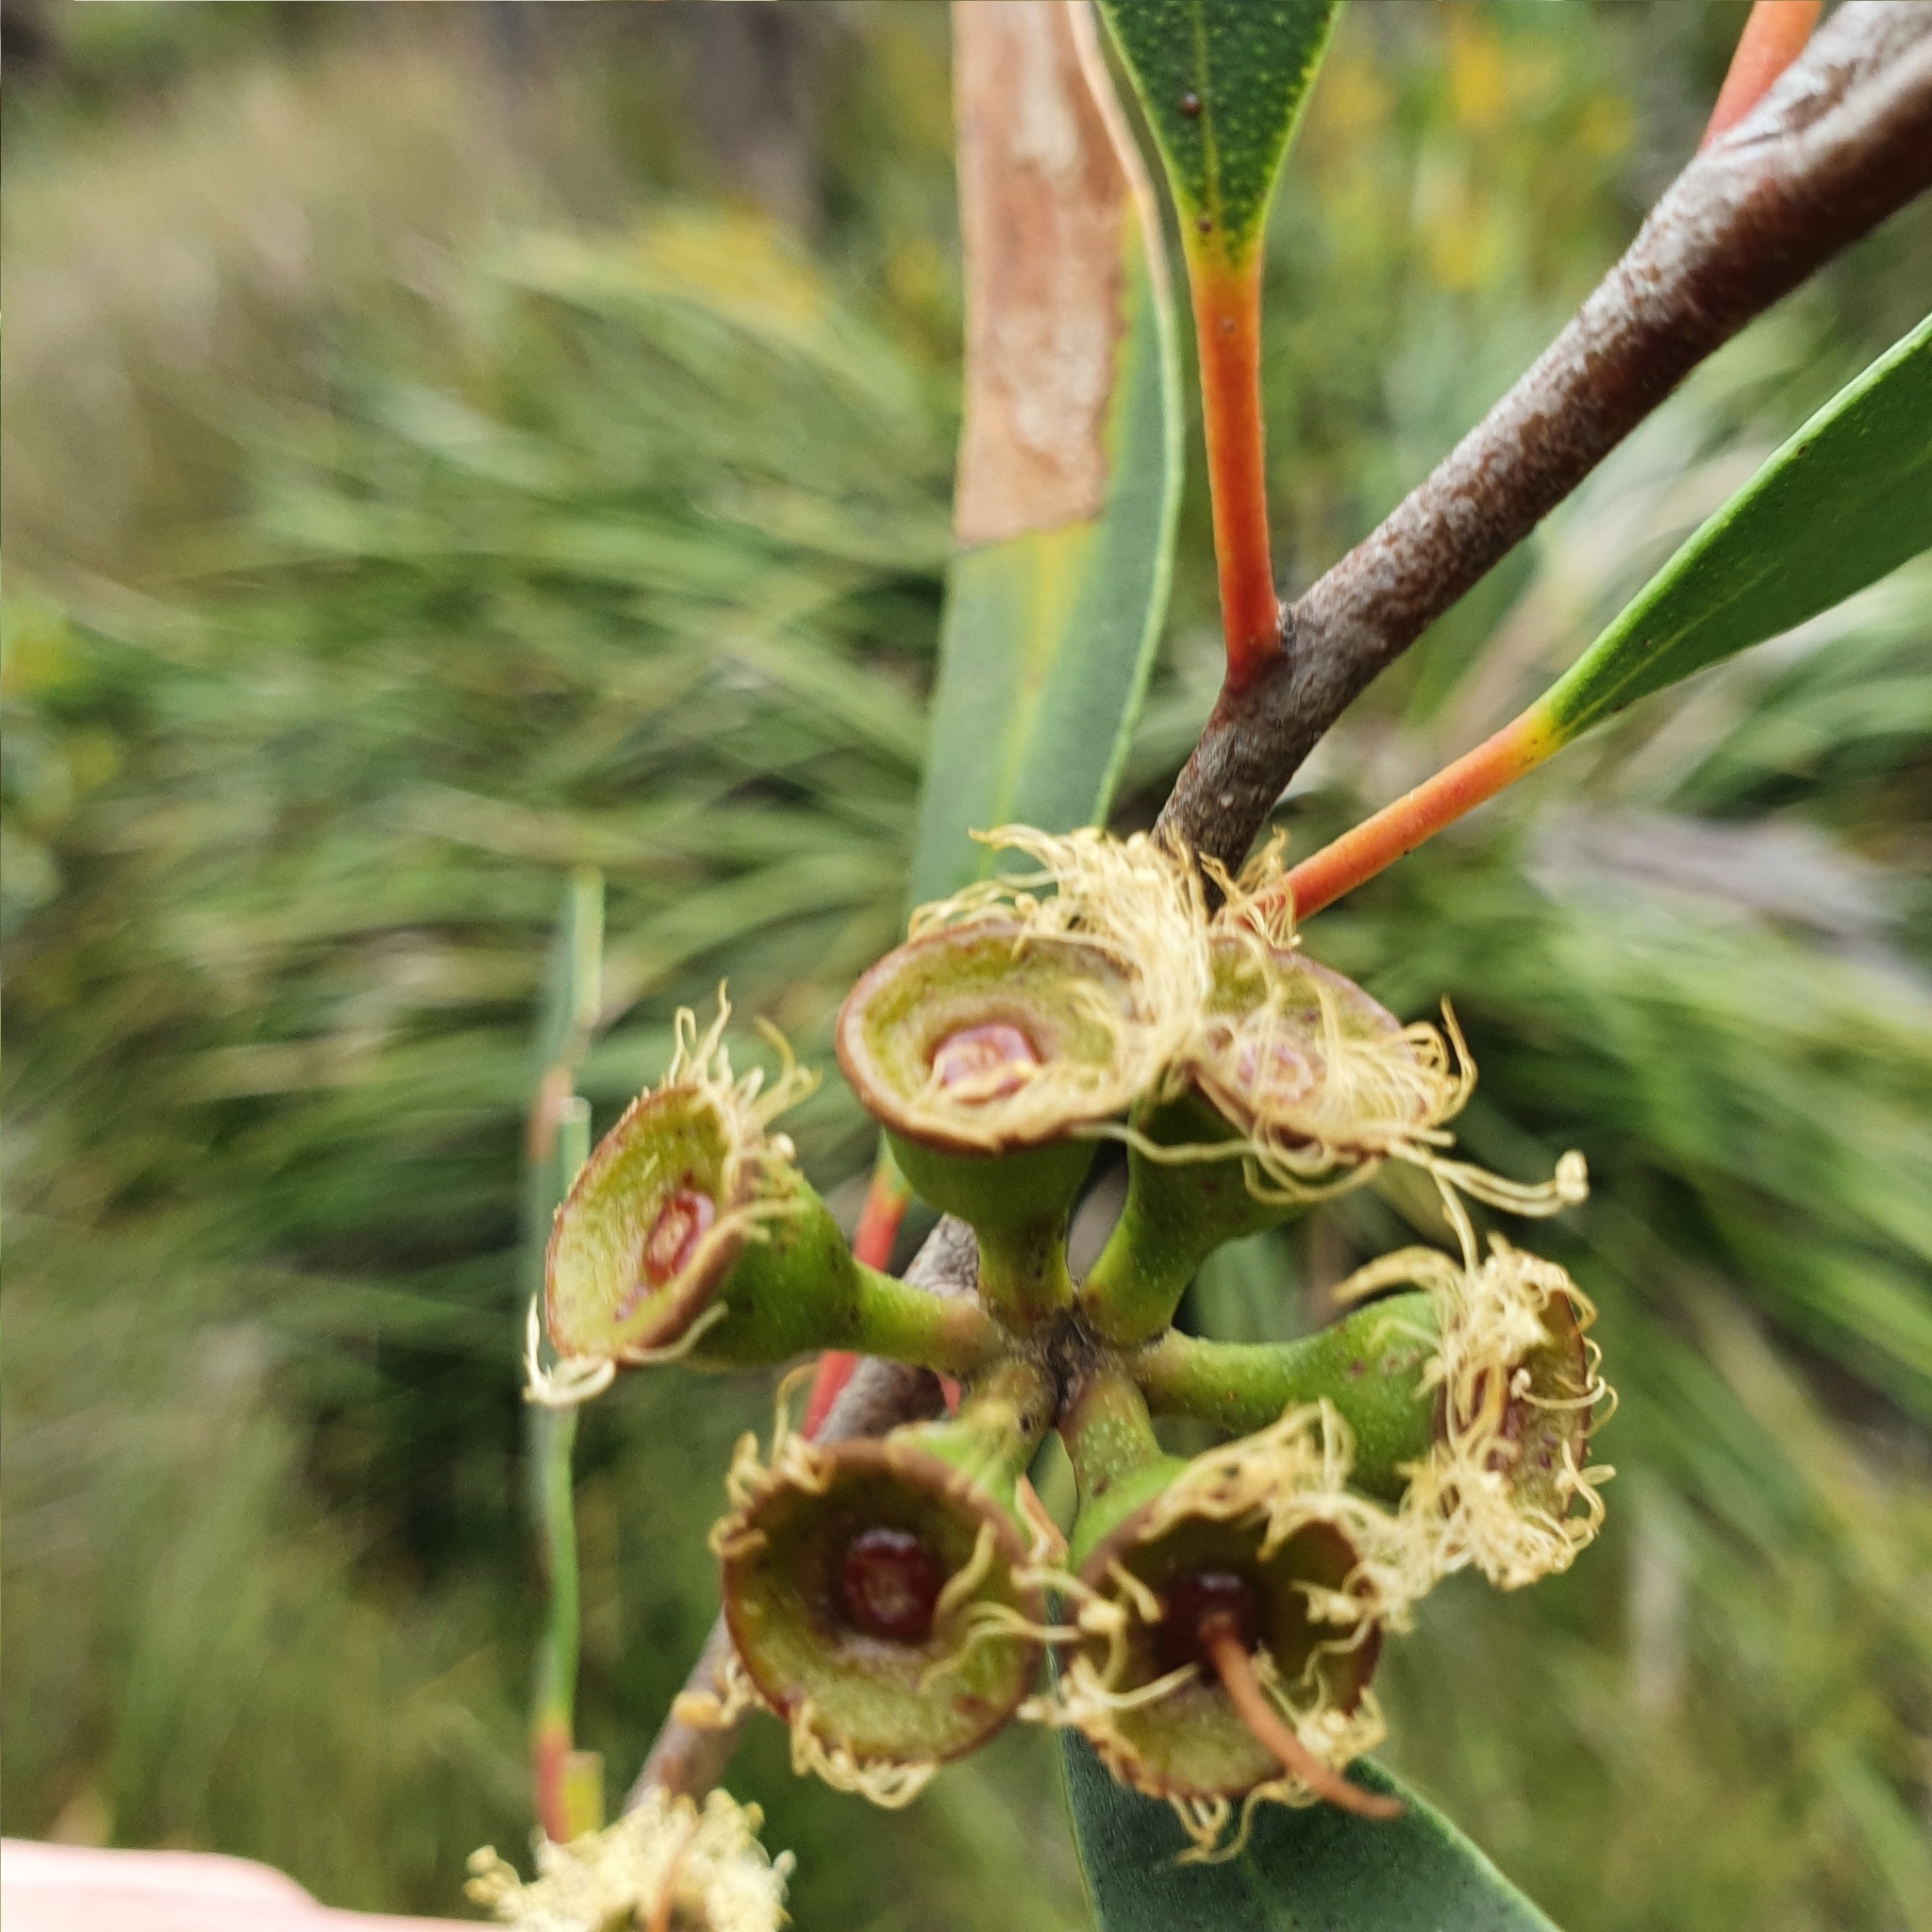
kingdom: Plantae
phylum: Tracheophyta
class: Magnoliopsida
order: Myrtales
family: Myrtaceae
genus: Eucalyptus
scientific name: Eucalyptus burgessiana
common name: Falconbridge mallee-ash
